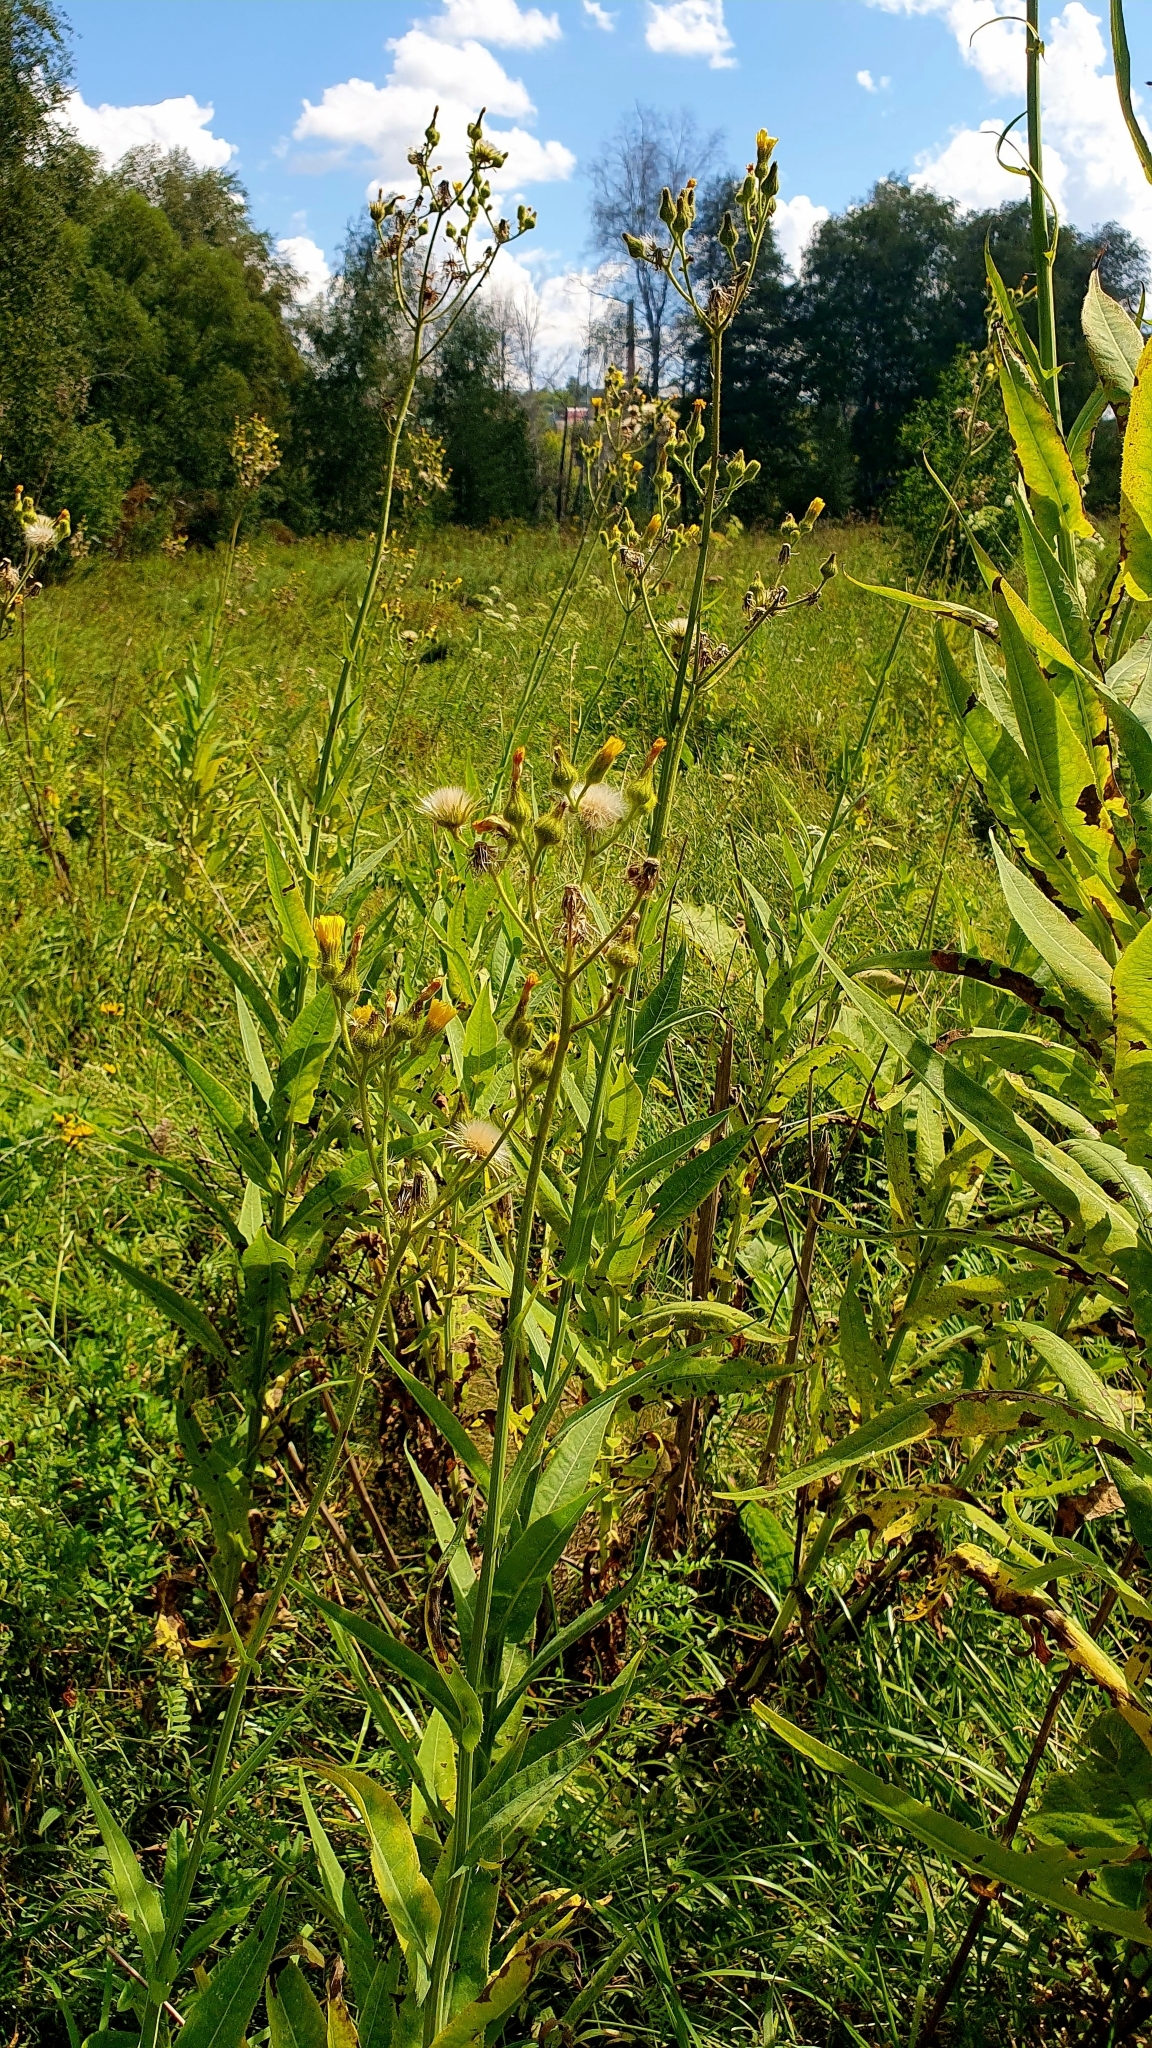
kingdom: Plantae
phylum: Tracheophyta
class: Magnoliopsida
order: Asterales
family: Asteraceae
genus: Sonchus
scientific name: Sonchus palustris
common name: Marsh sow-thistle
